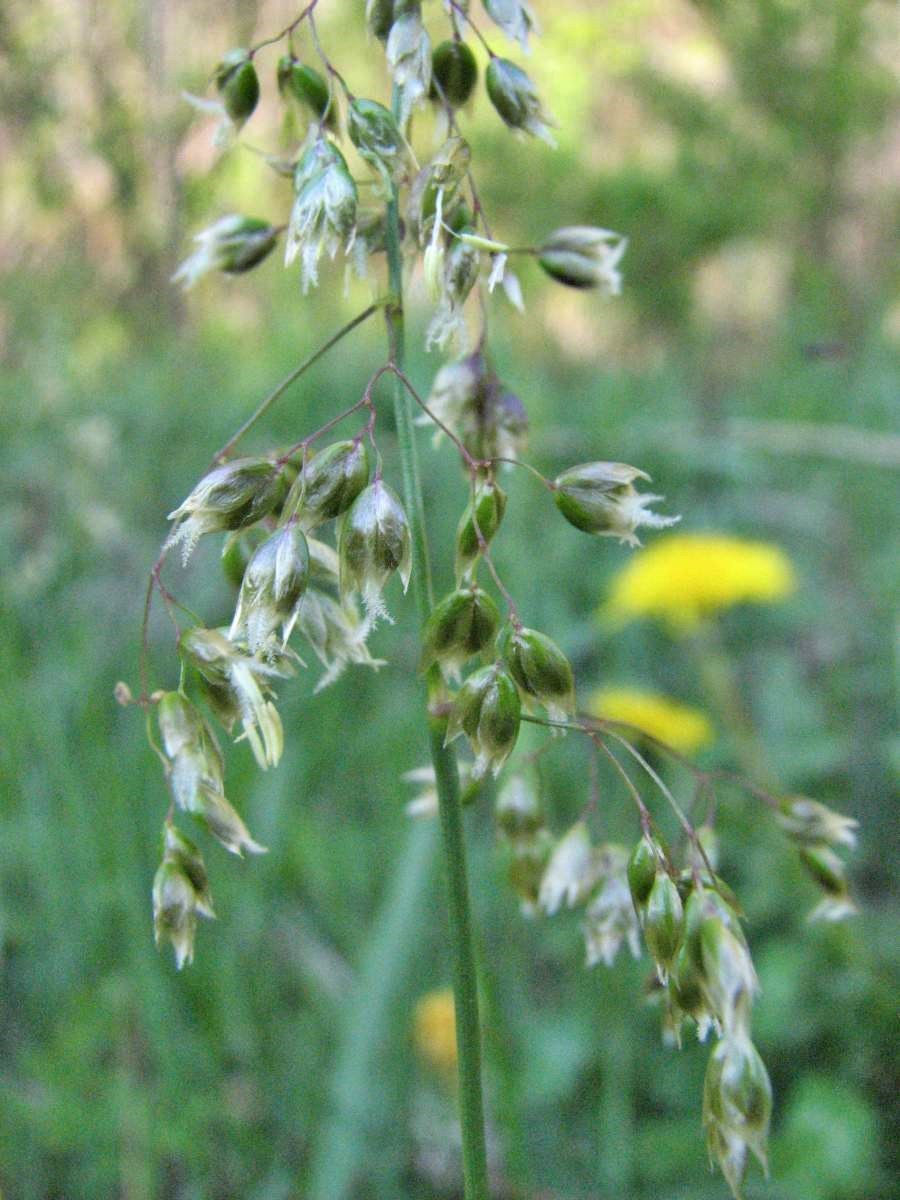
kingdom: Plantae
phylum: Tracheophyta
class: Liliopsida
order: Poales
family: Poaceae
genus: Anthoxanthum
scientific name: Anthoxanthum nitens
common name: Holy grass
